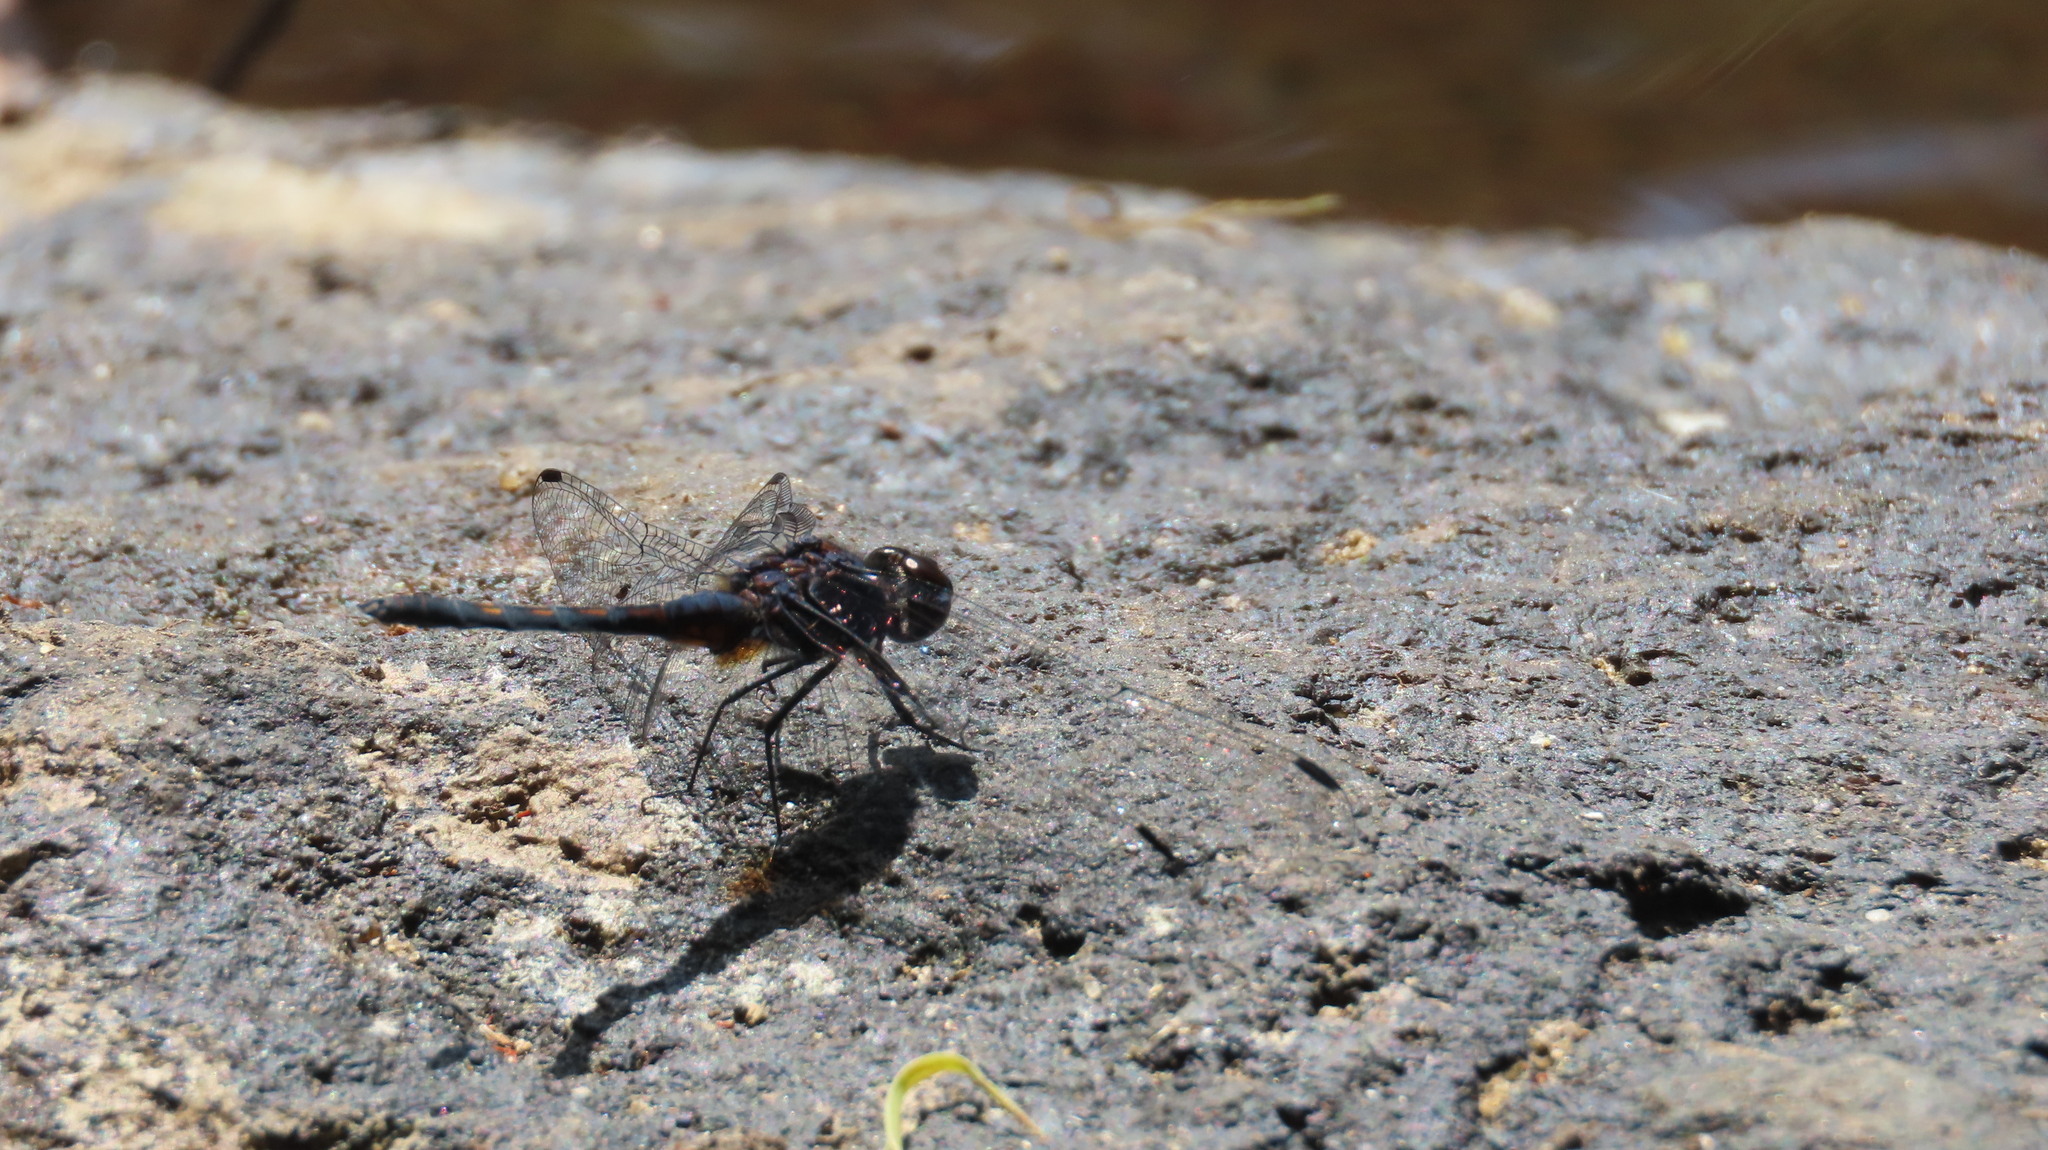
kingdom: Animalia
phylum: Arthropoda
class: Insecta
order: Odonata
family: Libellulidae
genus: Trithemis
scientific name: Trithemis festiva
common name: Indigo dropwing
